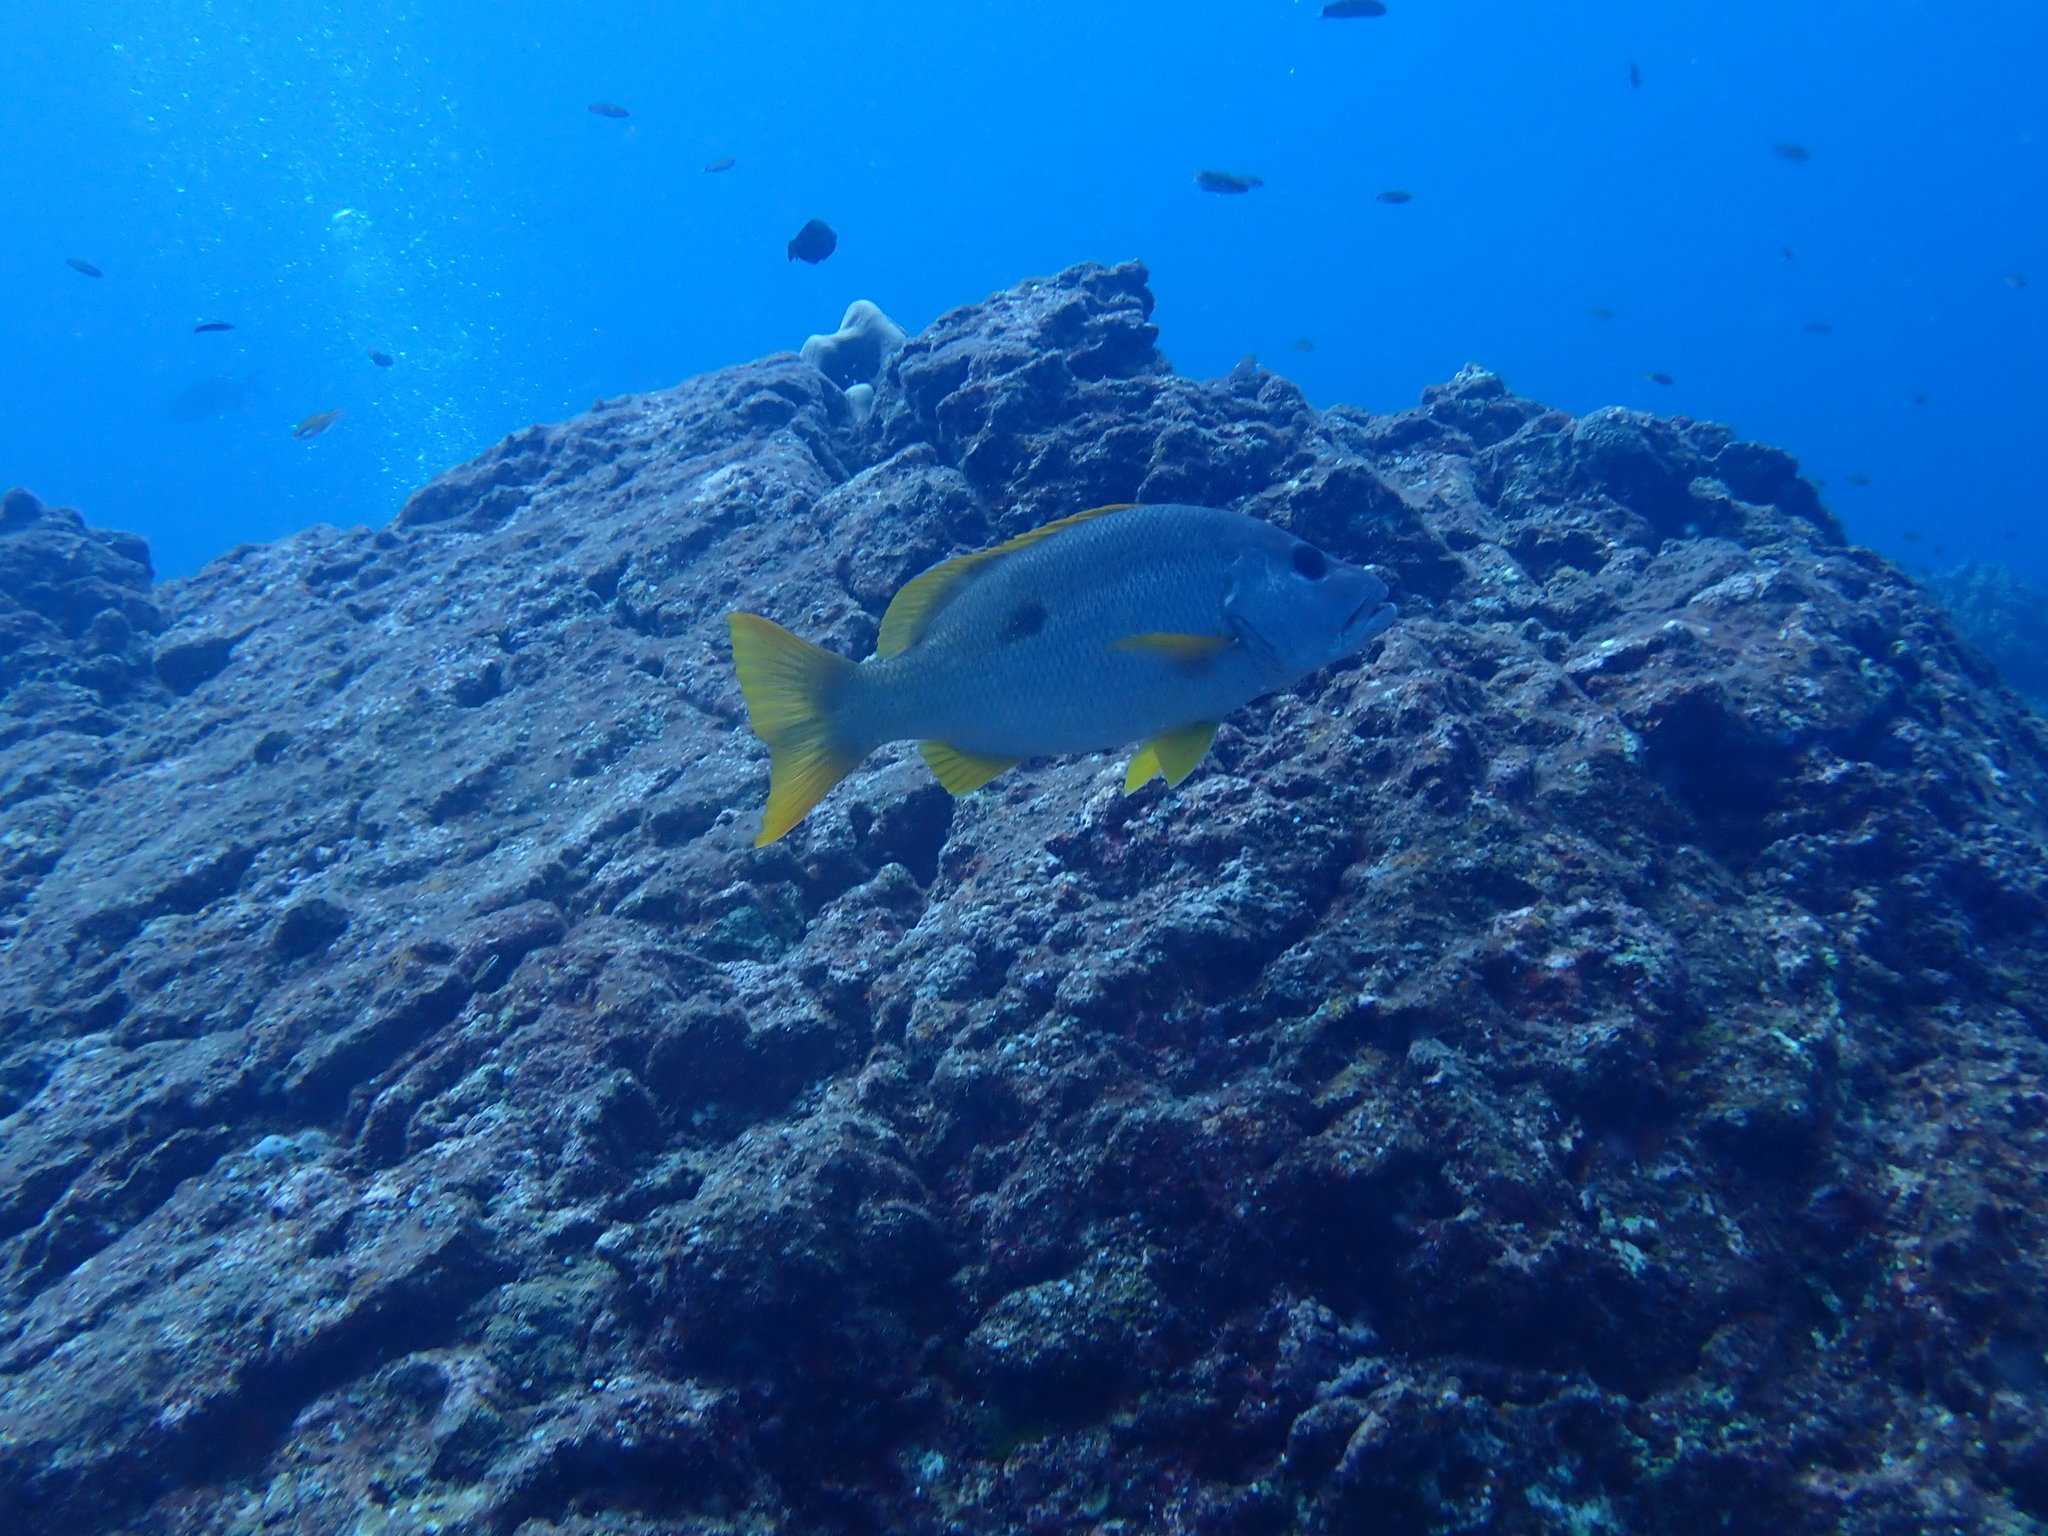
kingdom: Animalia
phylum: Chordata
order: Perciformes
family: Lutjanidae
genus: Lutjanus
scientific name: Lutjanus monostigma
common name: Onespot snapper
